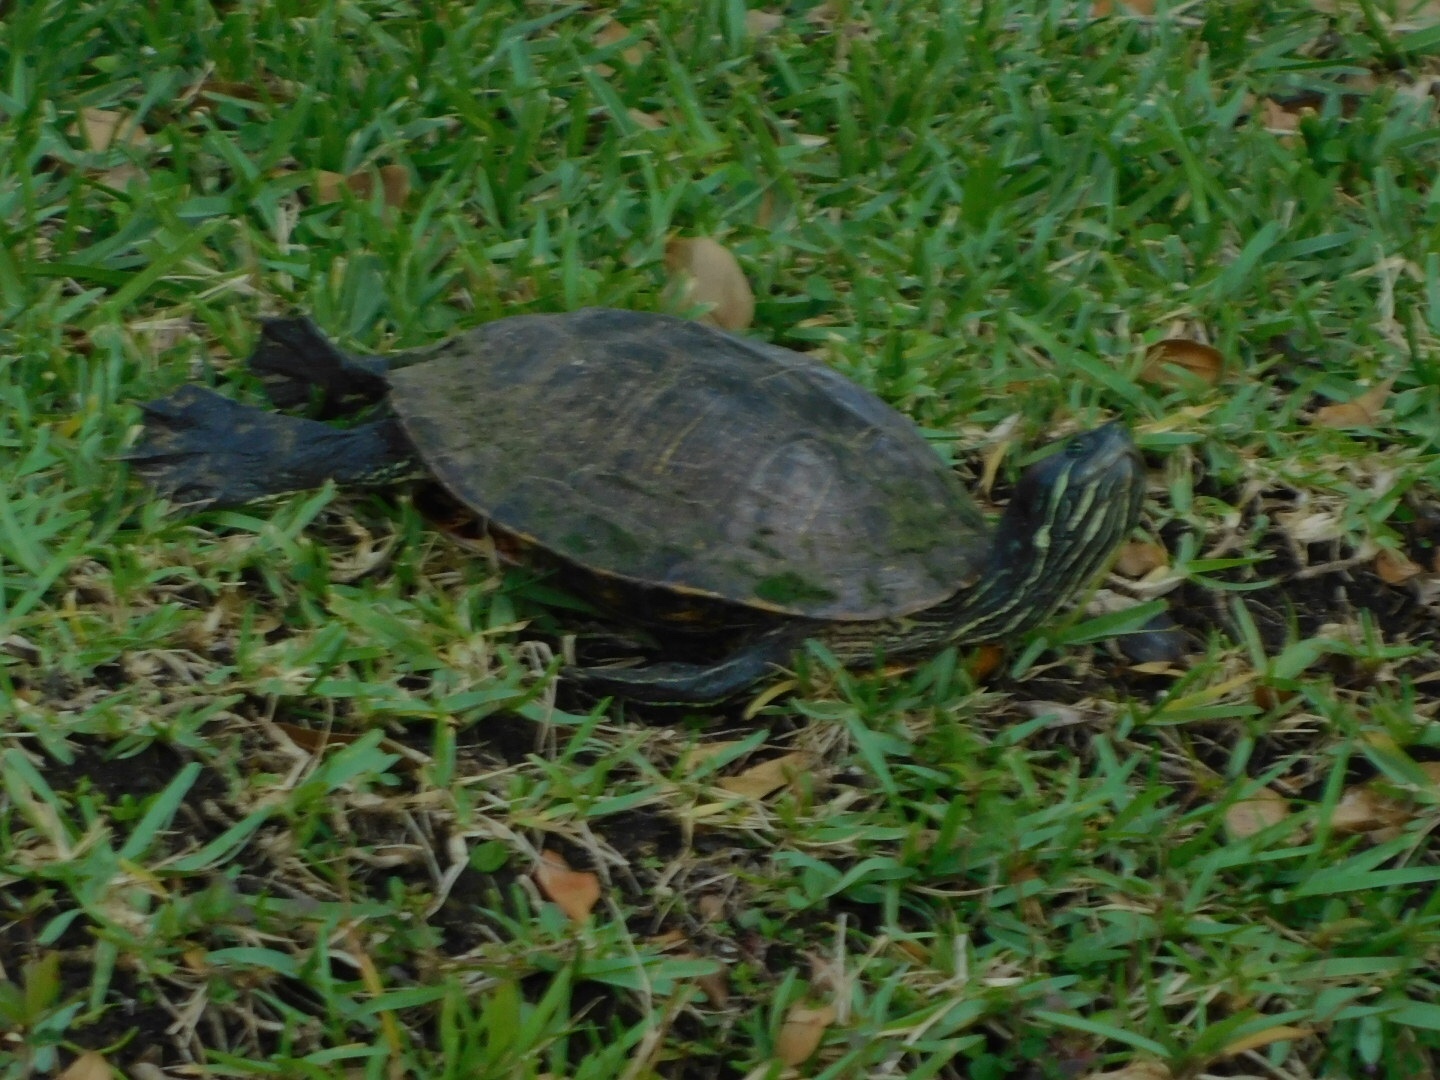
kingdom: Animalia
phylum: Chordata
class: Testudines
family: Emydidae
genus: Pseudemys
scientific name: Pseudemys peninsularis
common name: Peninsula cooter
